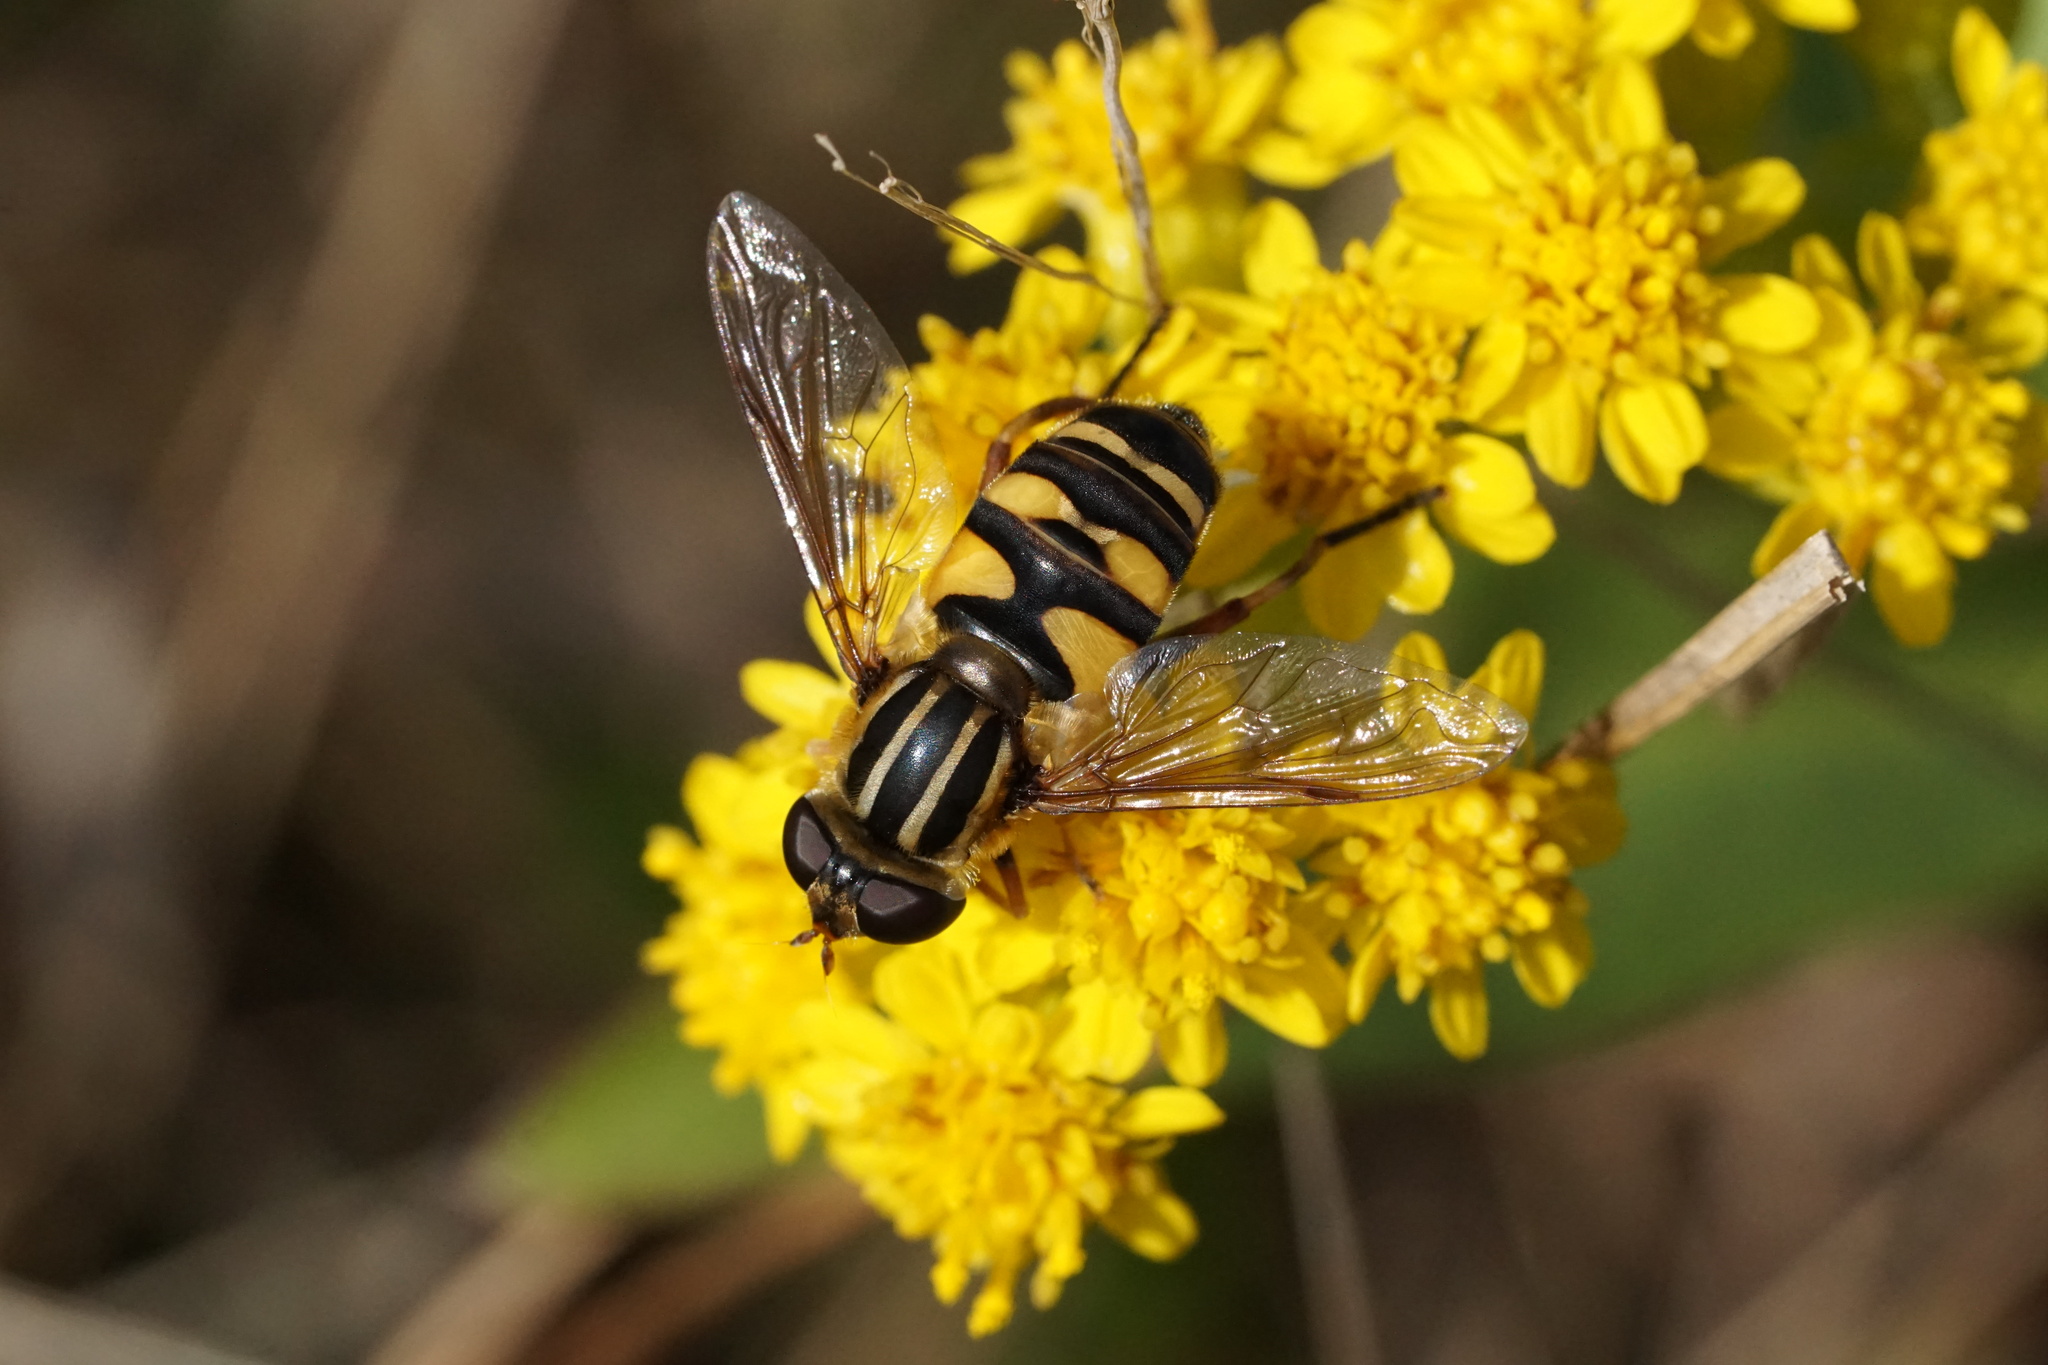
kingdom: Animalia
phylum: Arthropoda
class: Insecta
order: Diptera
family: Syrphidae
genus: Helophilus
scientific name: Helophilus fasciatus
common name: Narrow-headed marsh fly
